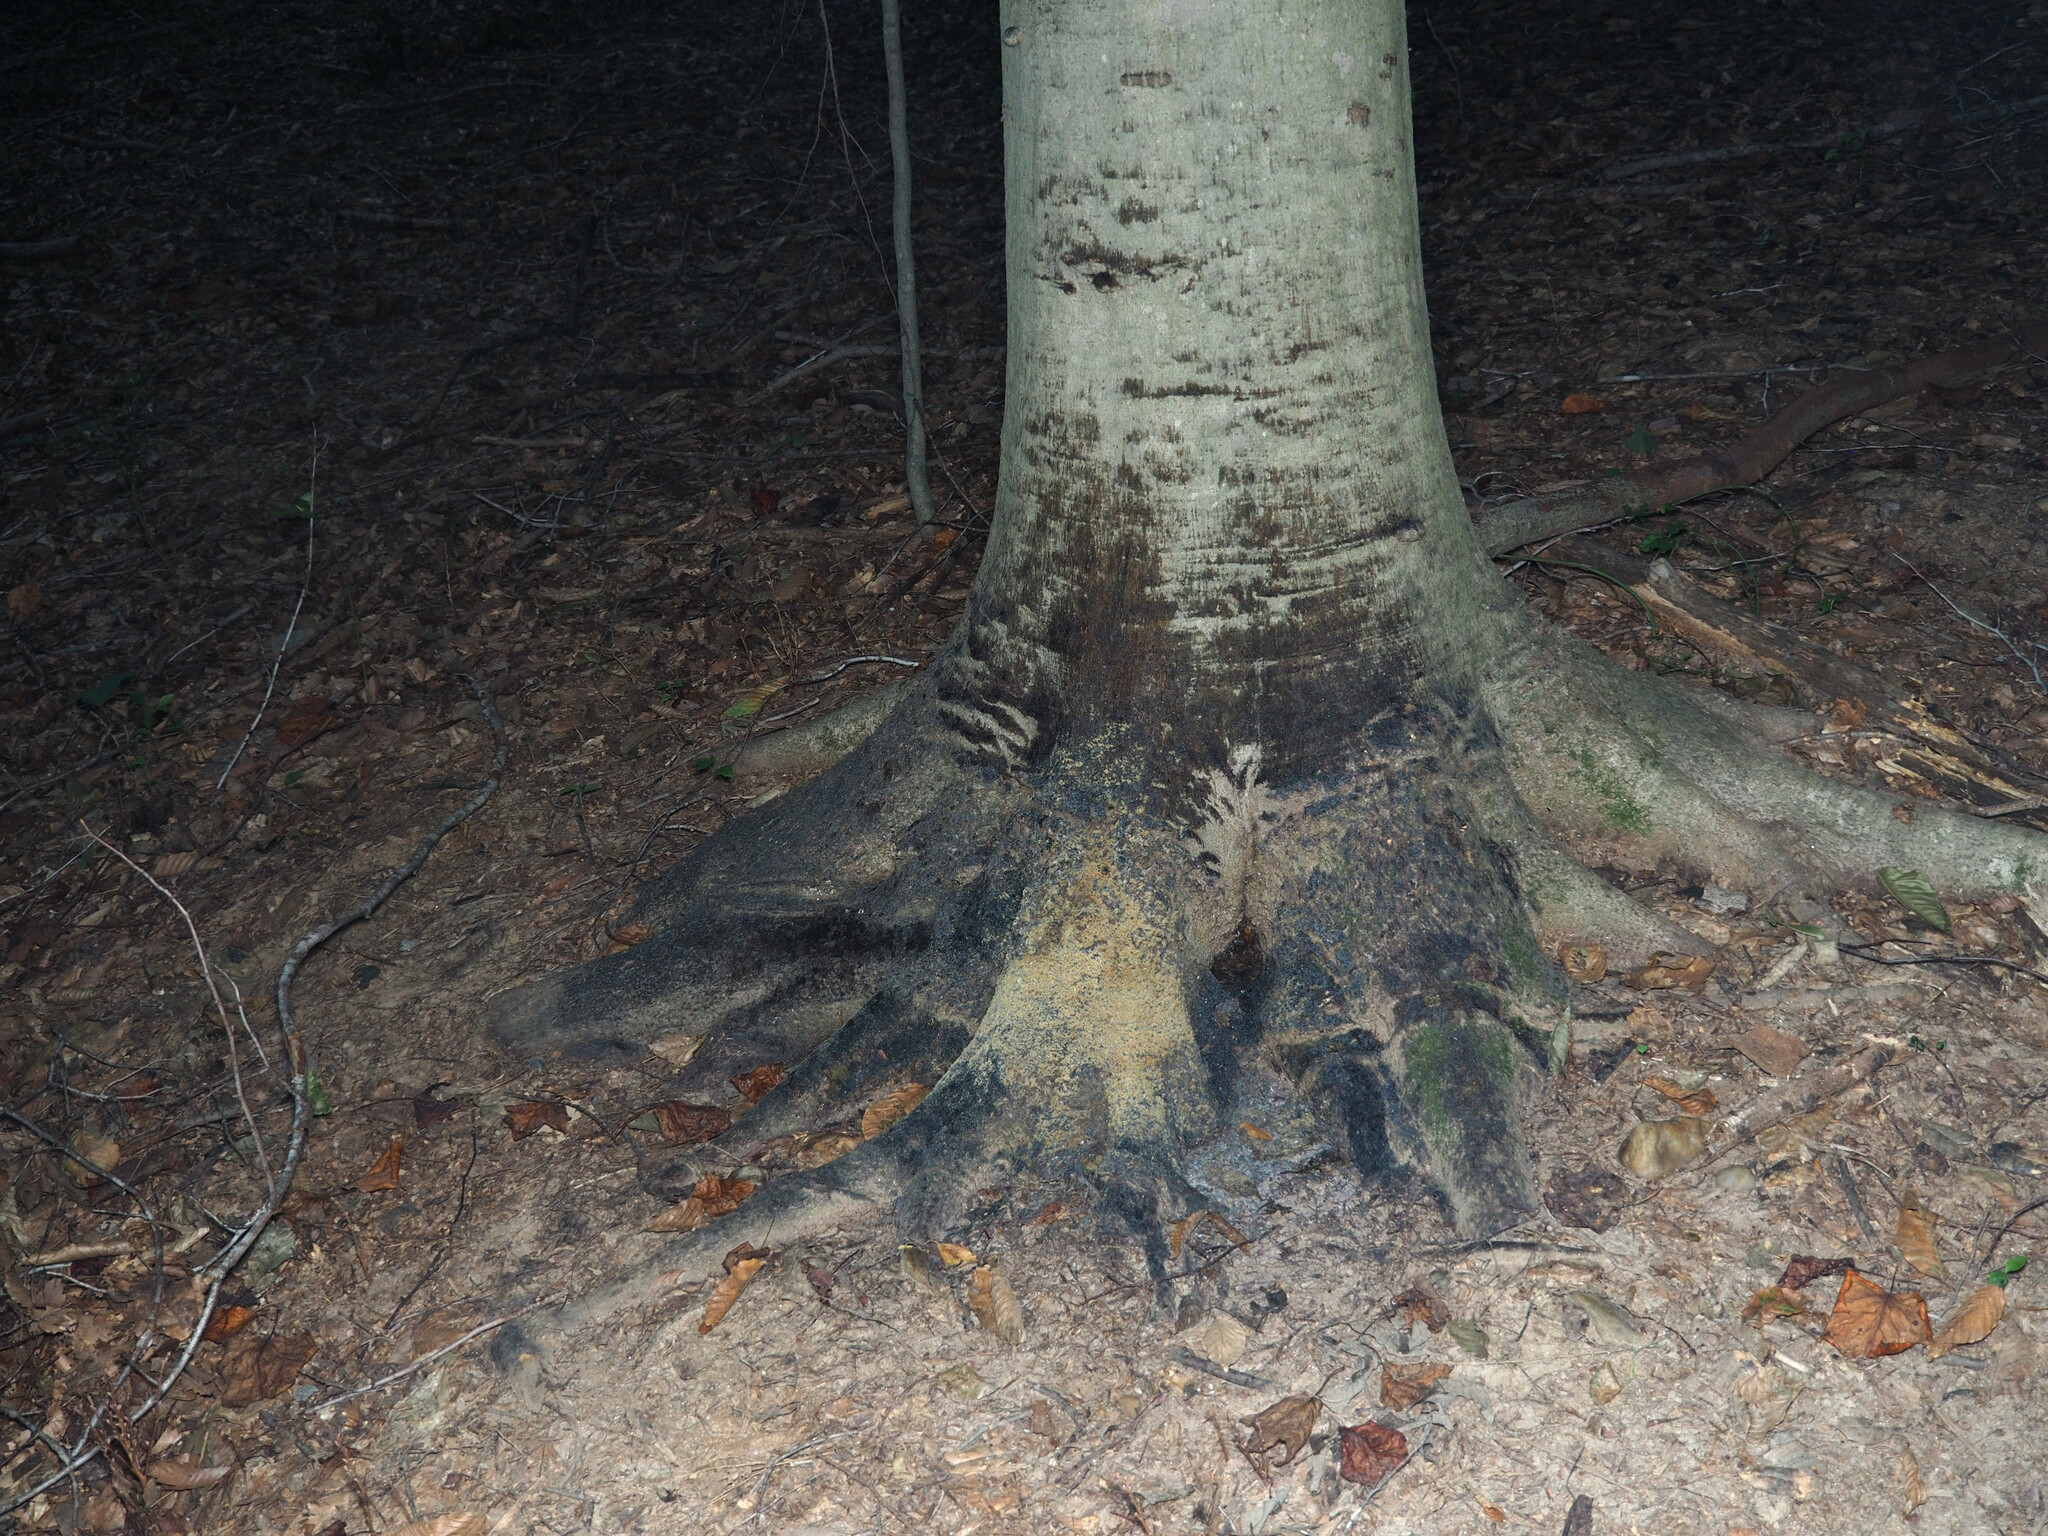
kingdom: Fungi
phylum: Ascomycota
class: Dothideomycetes
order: Capnodiales
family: Capnodiaceae
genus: Scorias
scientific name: Scorias spongiosa
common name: Black sooty mold
